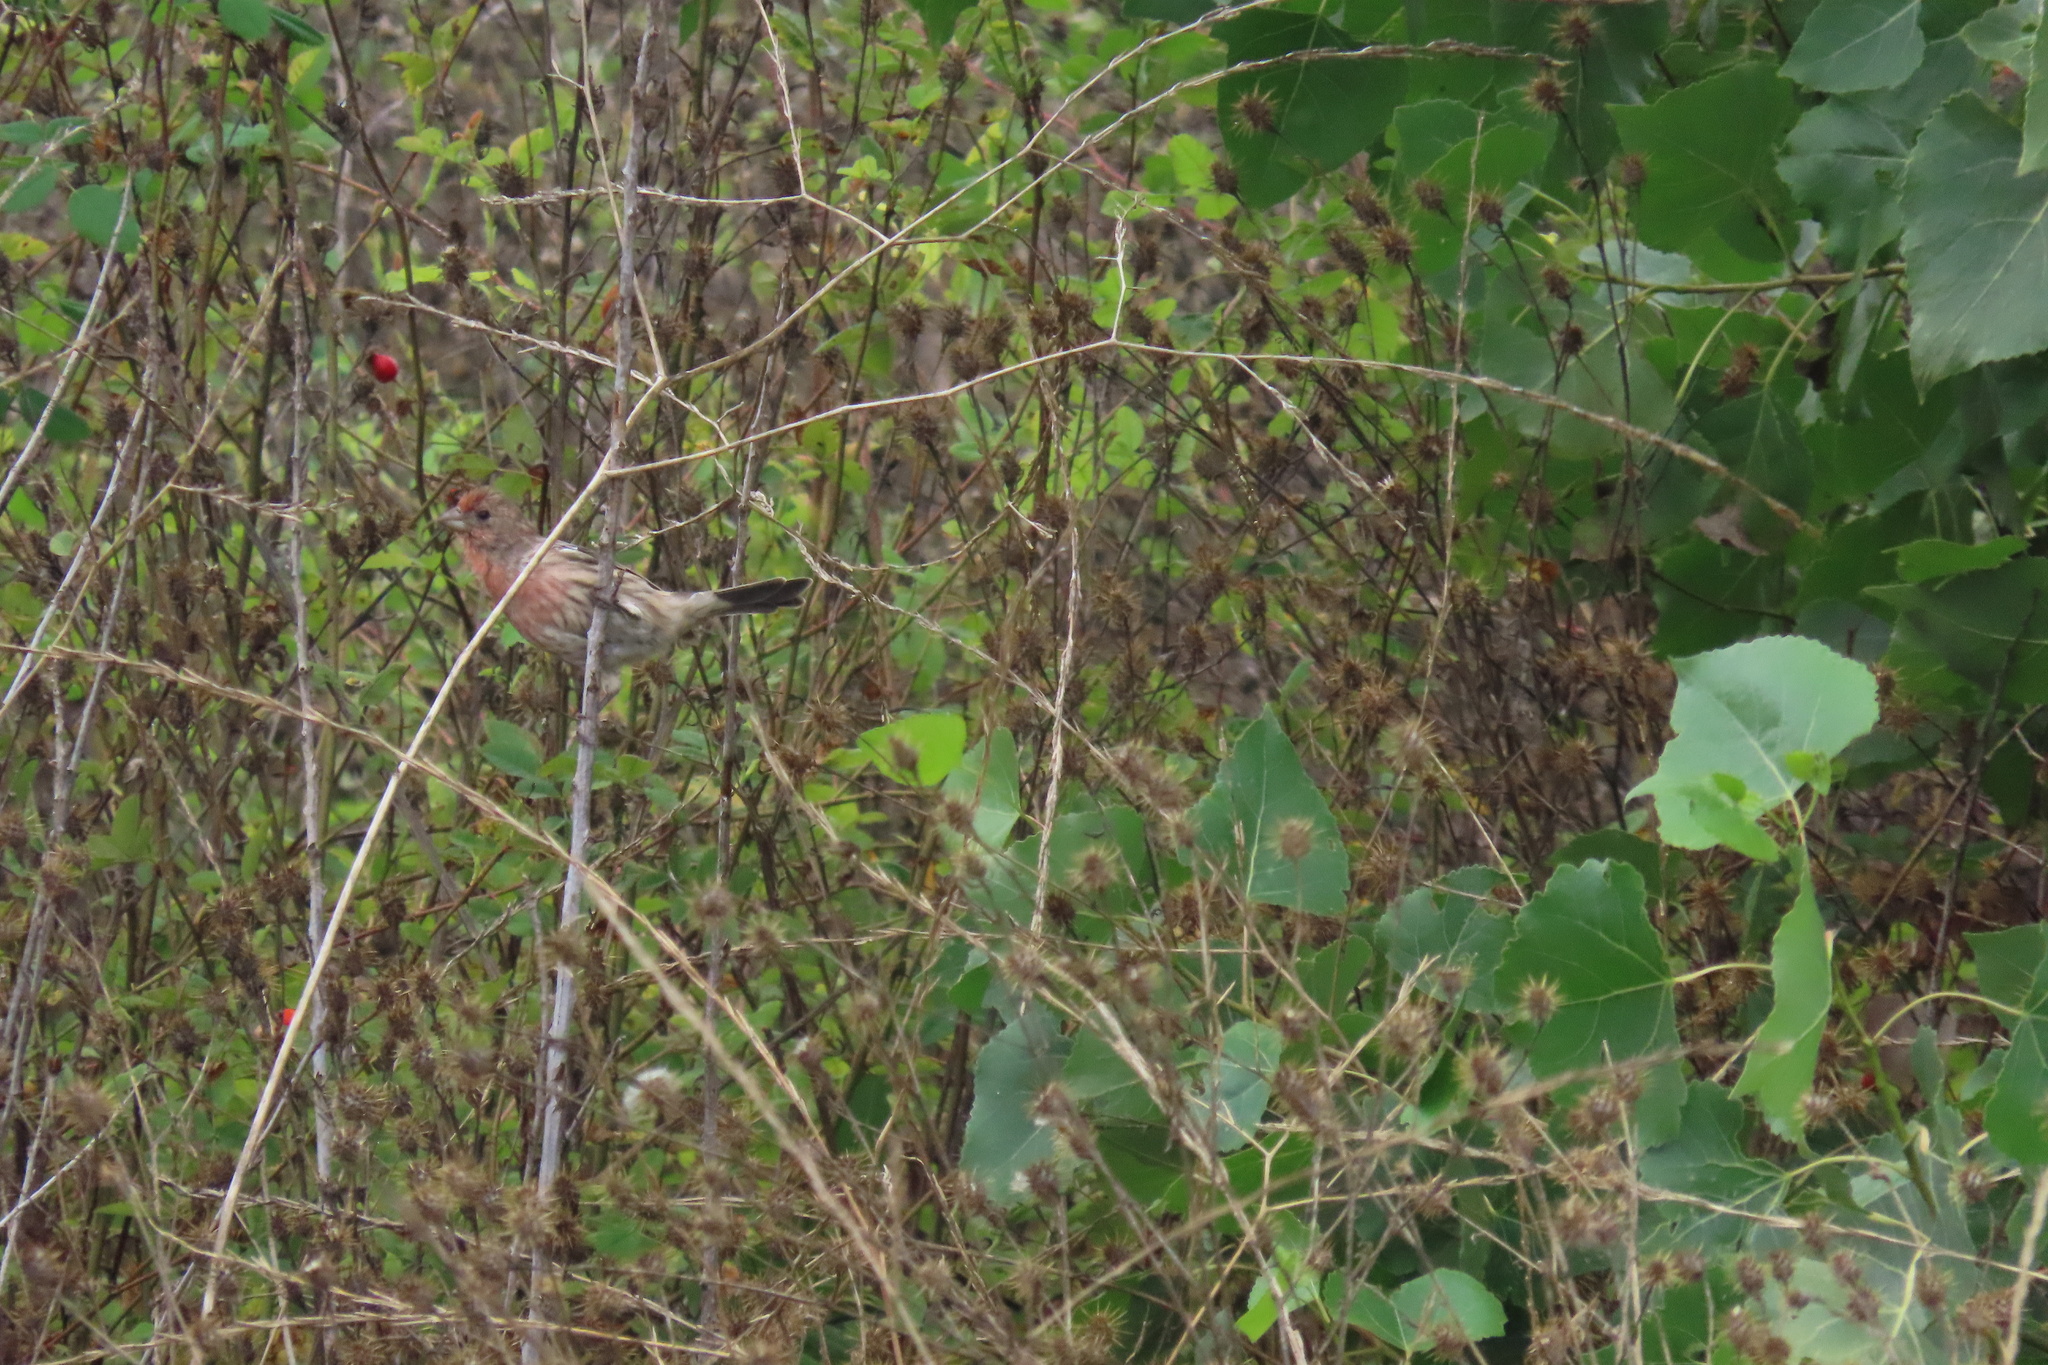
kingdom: Animalia
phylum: Chordata
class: Aves
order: Passeriformes
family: Fringillidae
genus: Haemorhous
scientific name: Haemorhous mexicanus
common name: House finch
